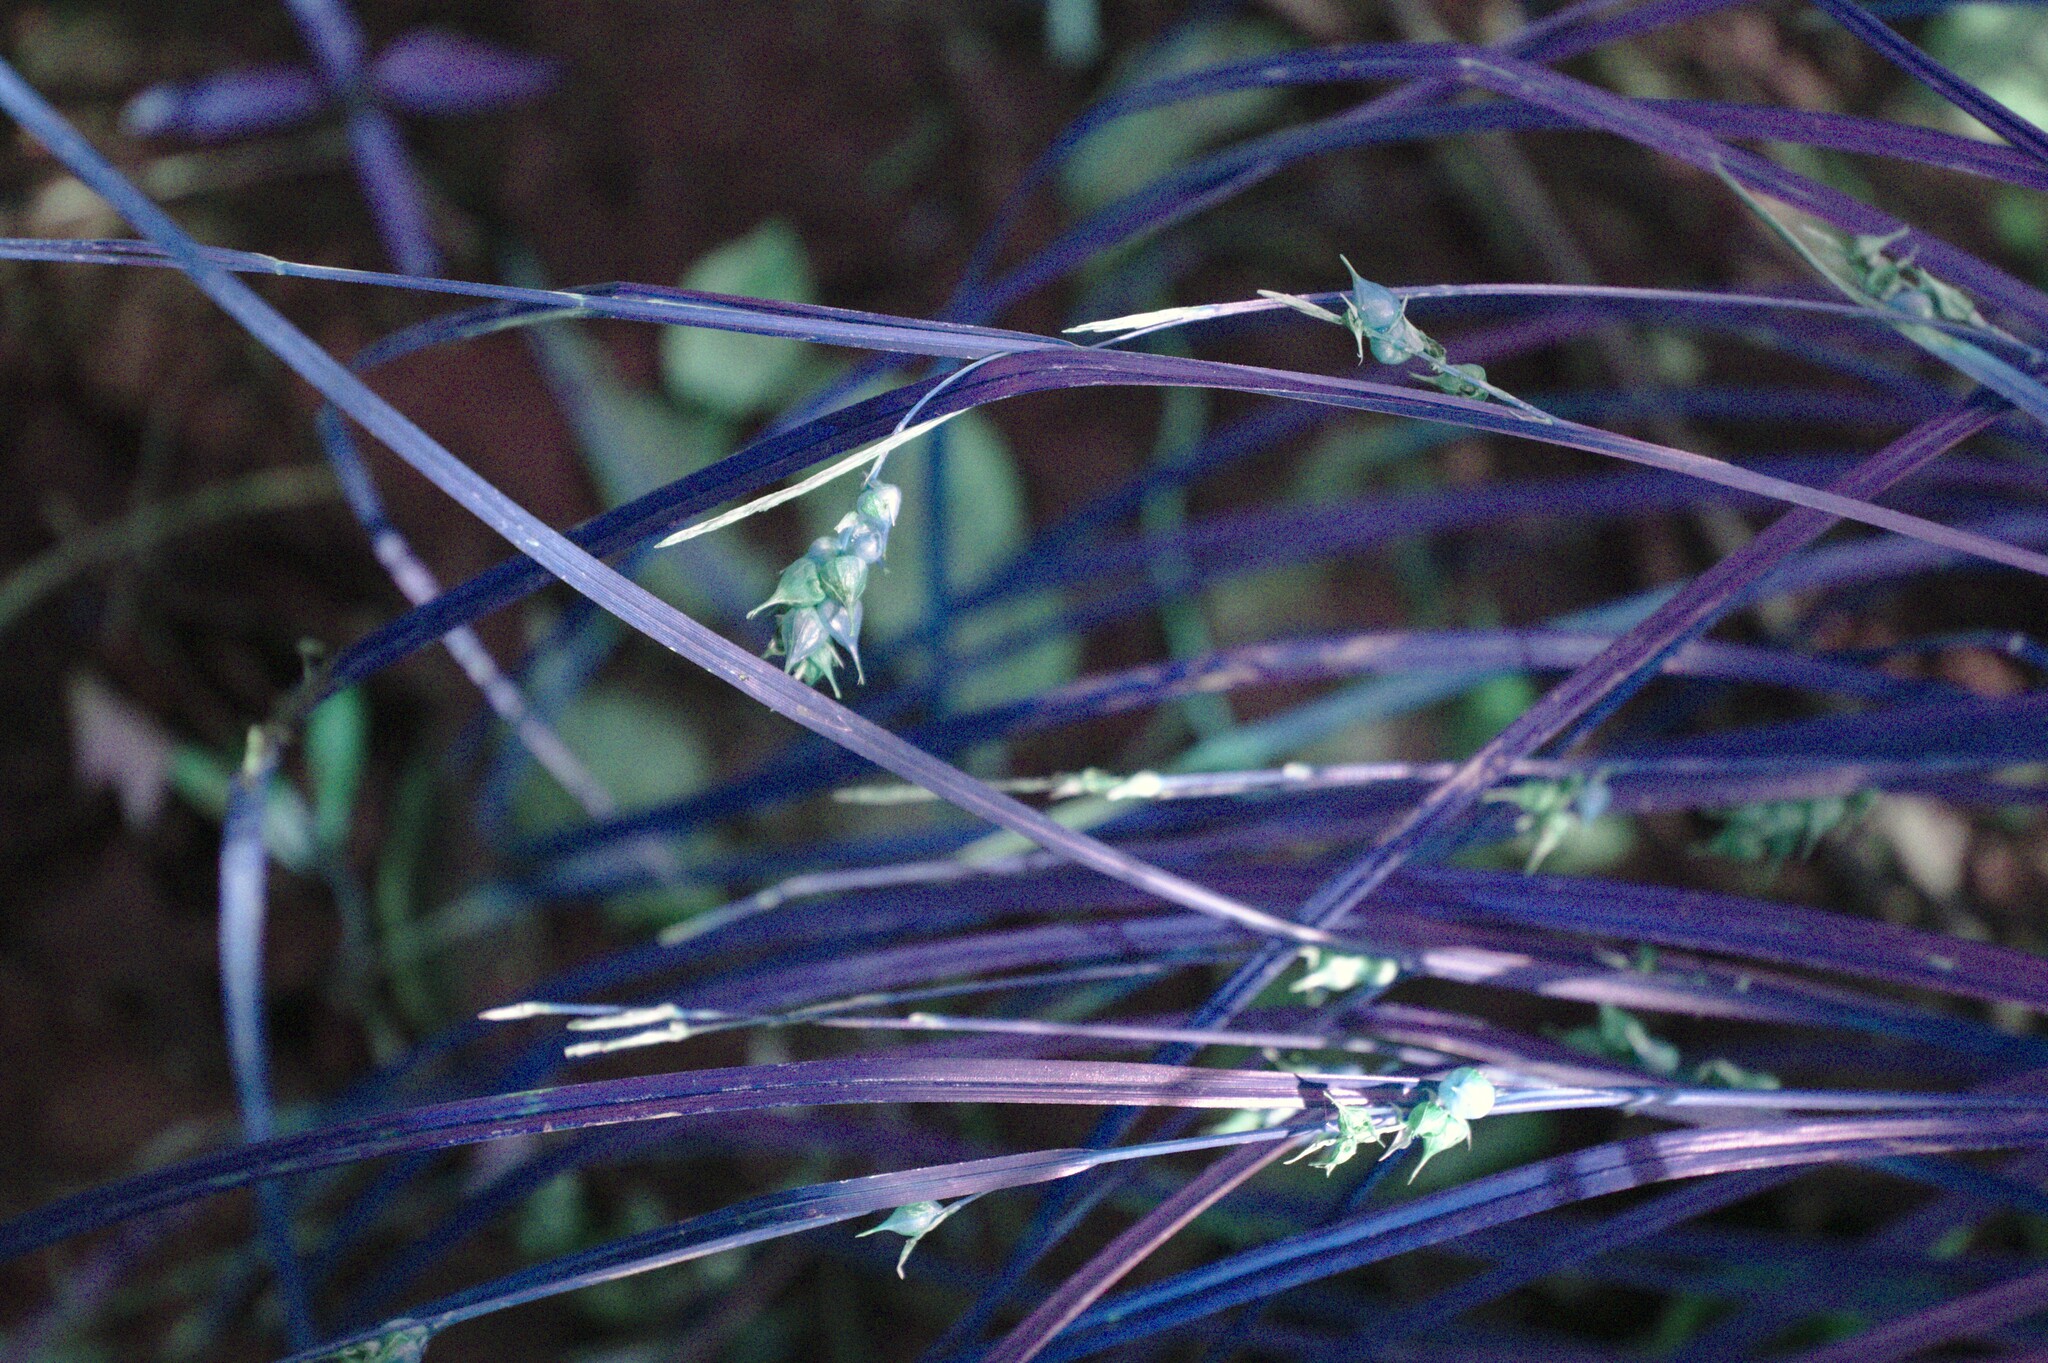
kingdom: Plantae
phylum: Tracheophyta
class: Liliopsida
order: Poales
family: Cyperaceae
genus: Carex
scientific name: Carex tuckermanii
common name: Tuckerman's sedge
